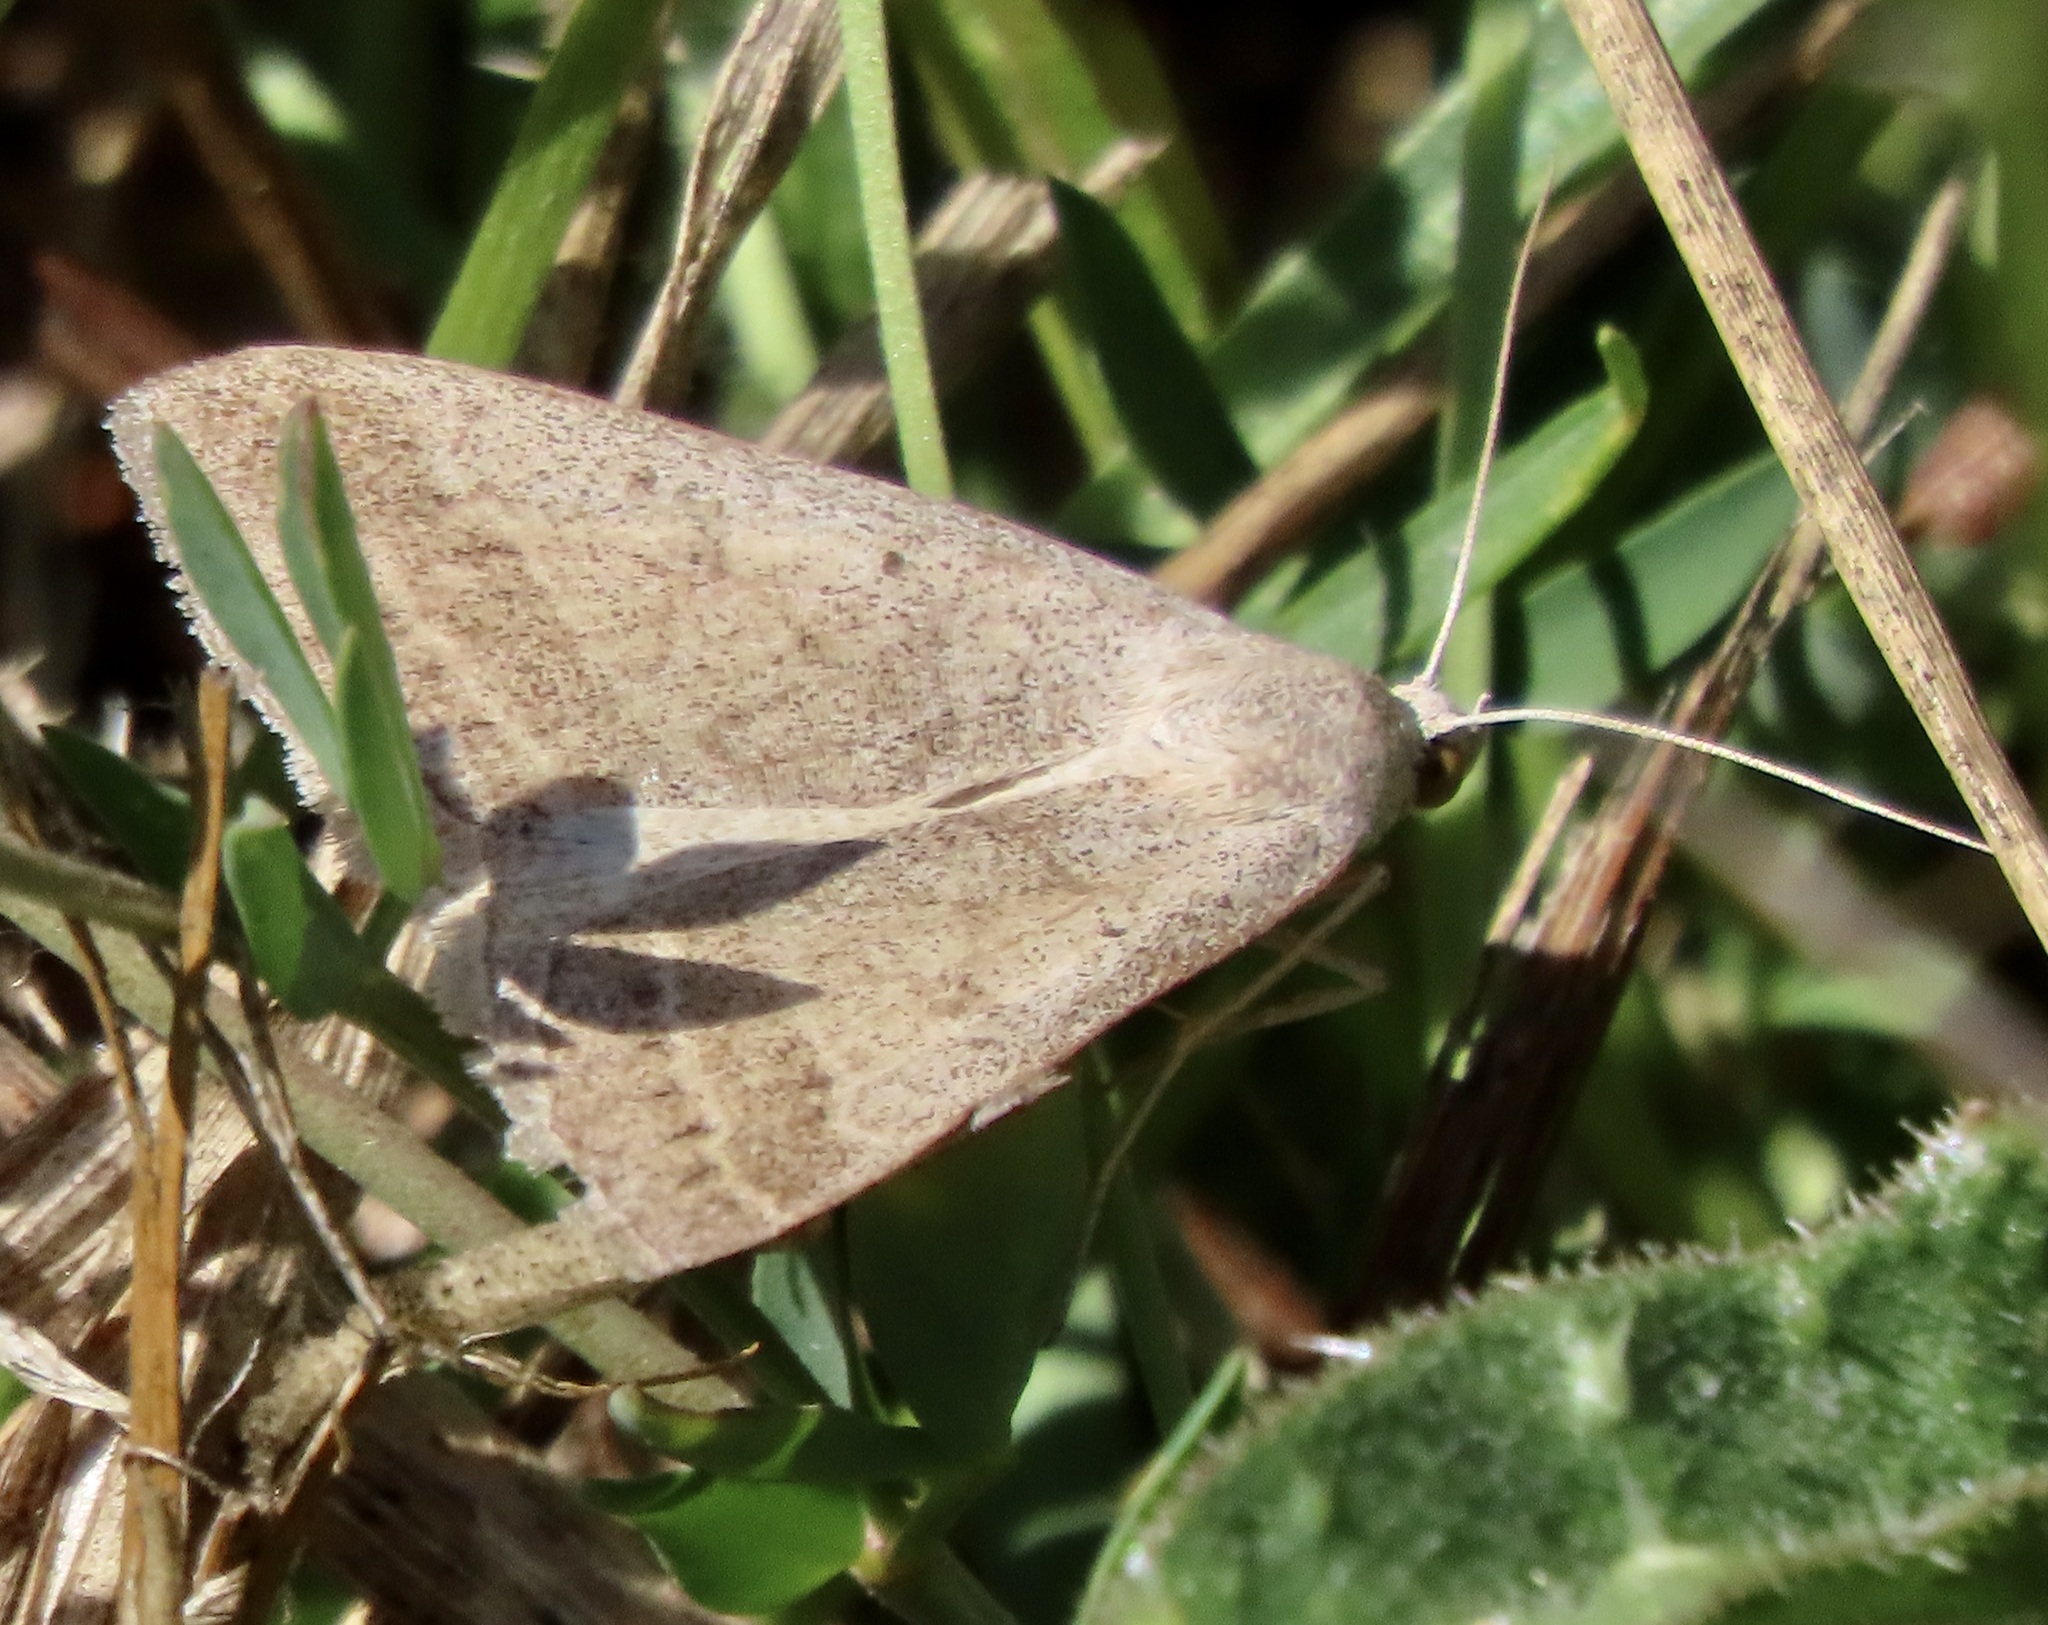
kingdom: Animalia
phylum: Arthropoda
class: Insecta
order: Lepidoptera
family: Erebidae
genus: Caenurgia
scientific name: Caenurgia togataria
